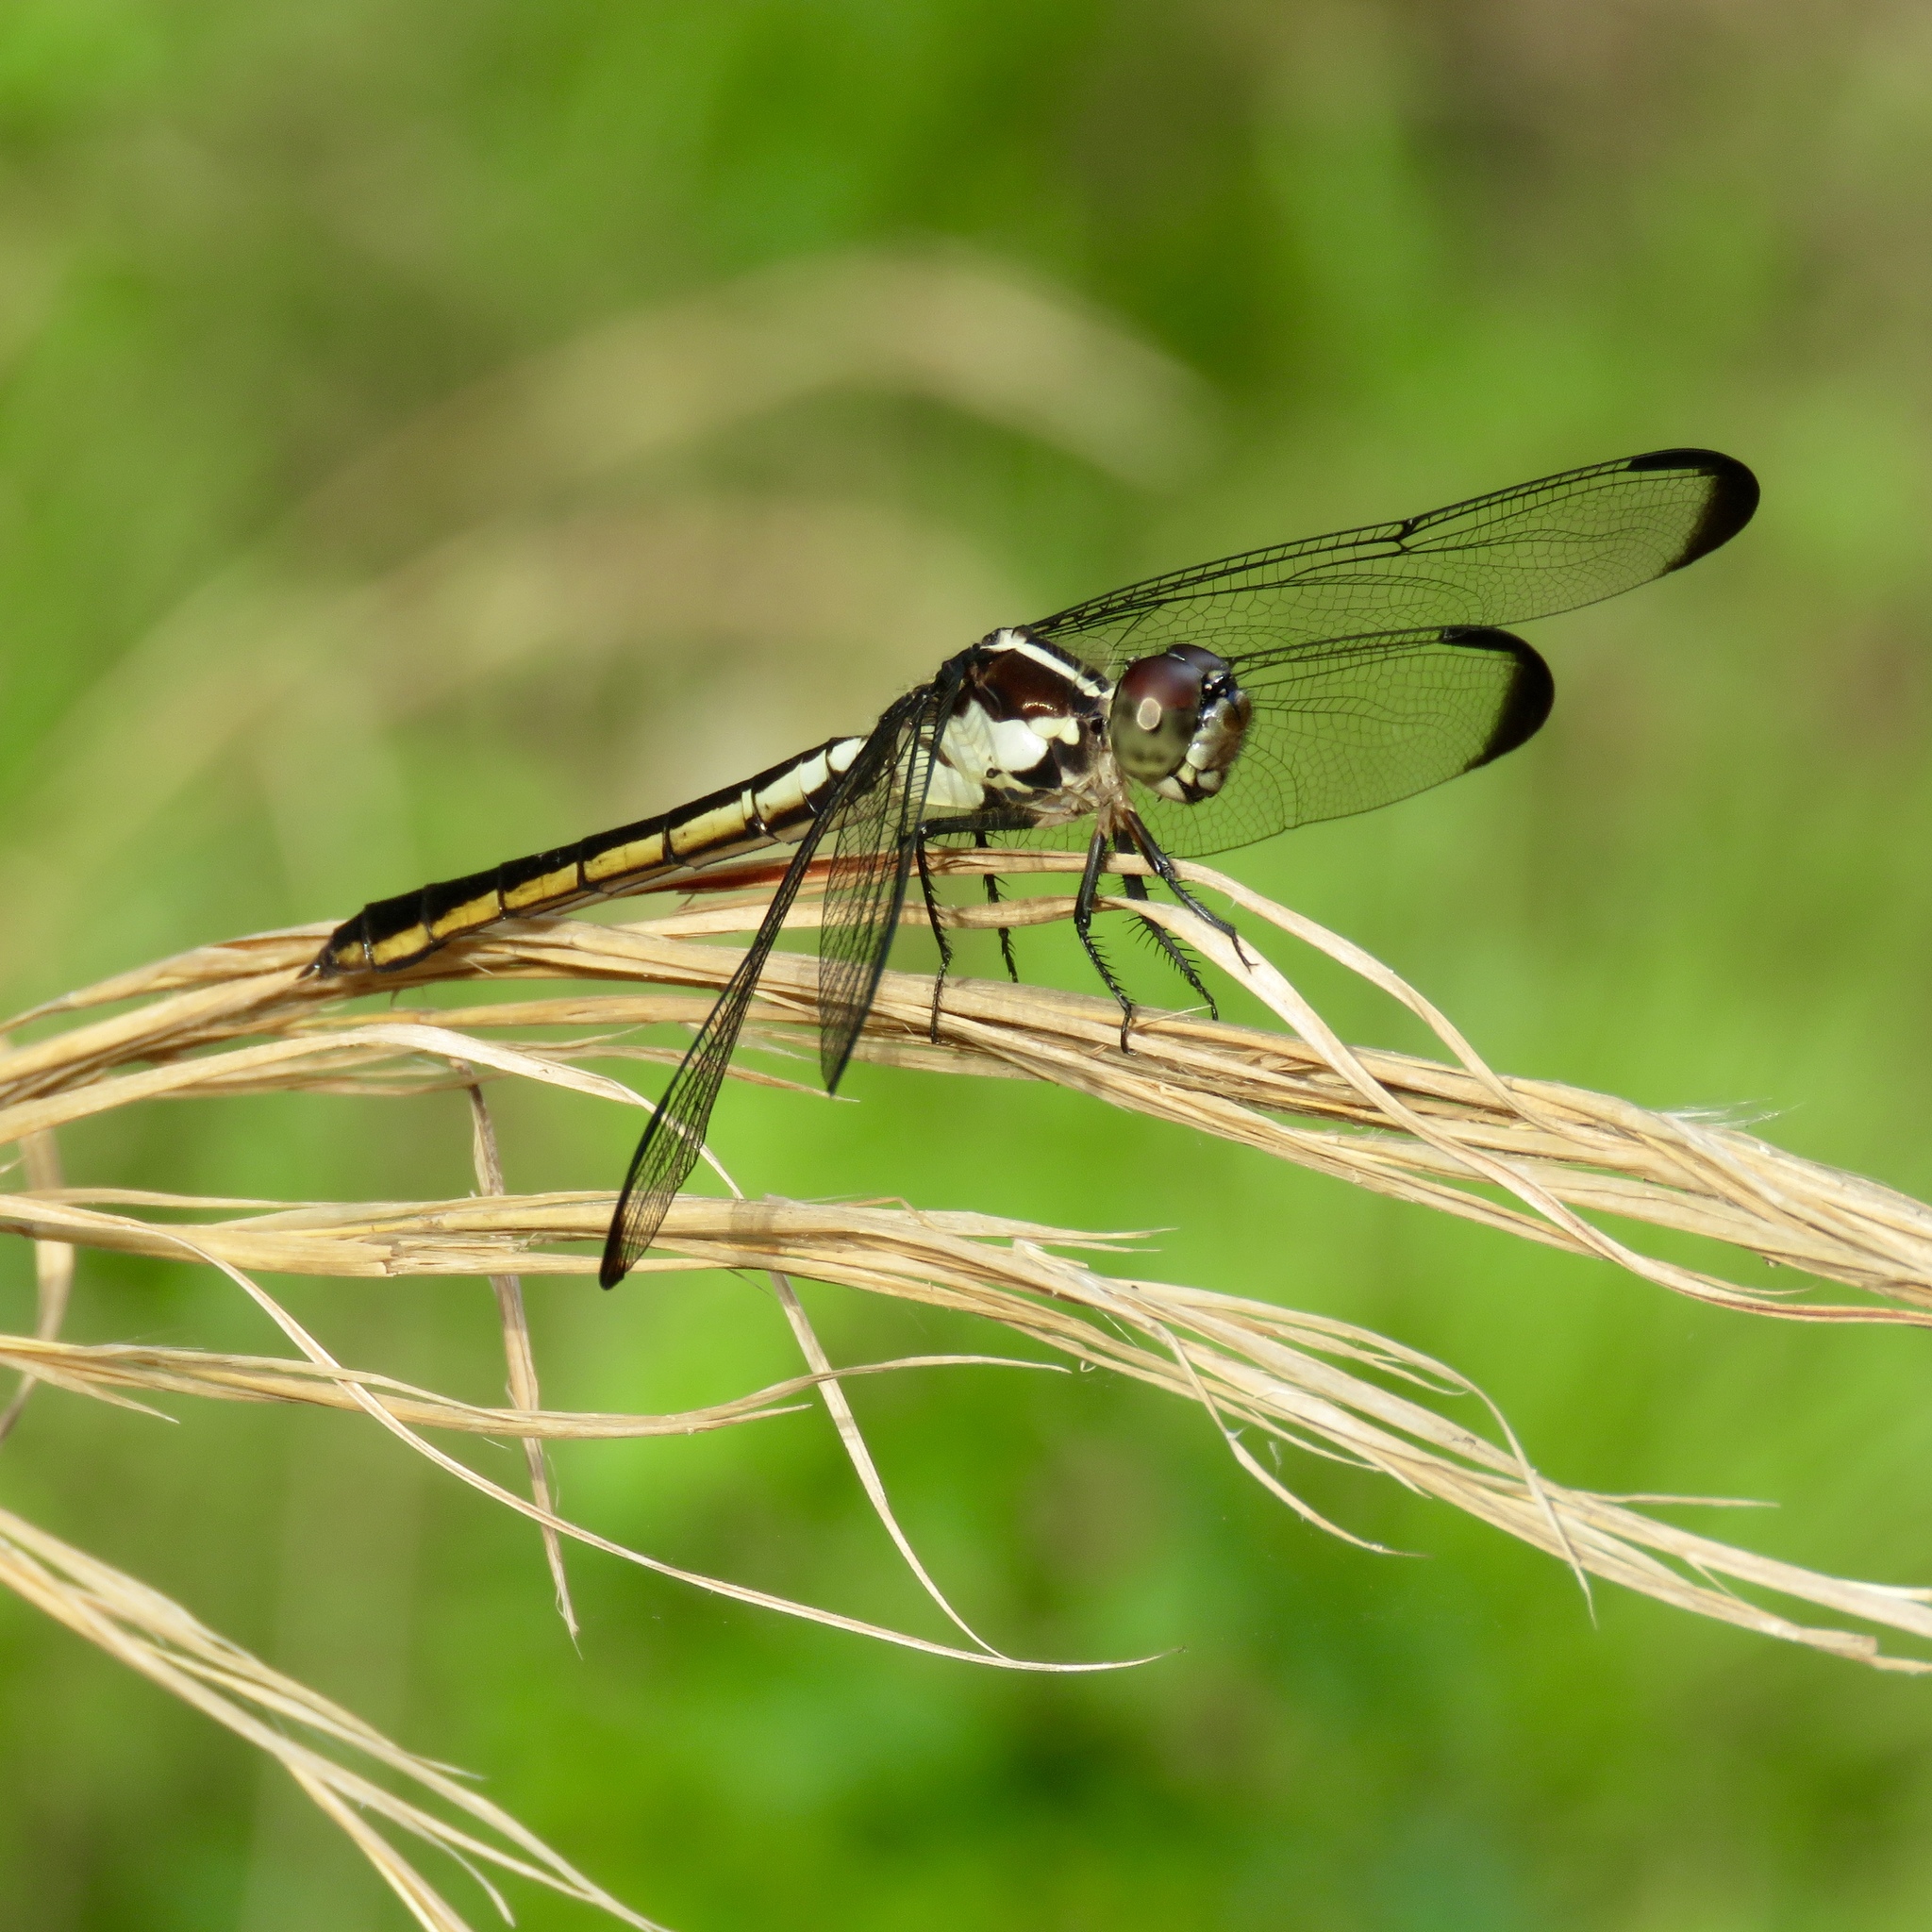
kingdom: Animalia
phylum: Arthropoda
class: Insecta
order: Odonata
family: Libellulidae
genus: Libellula
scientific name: Libellula incesta
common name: Slaty skimmer
